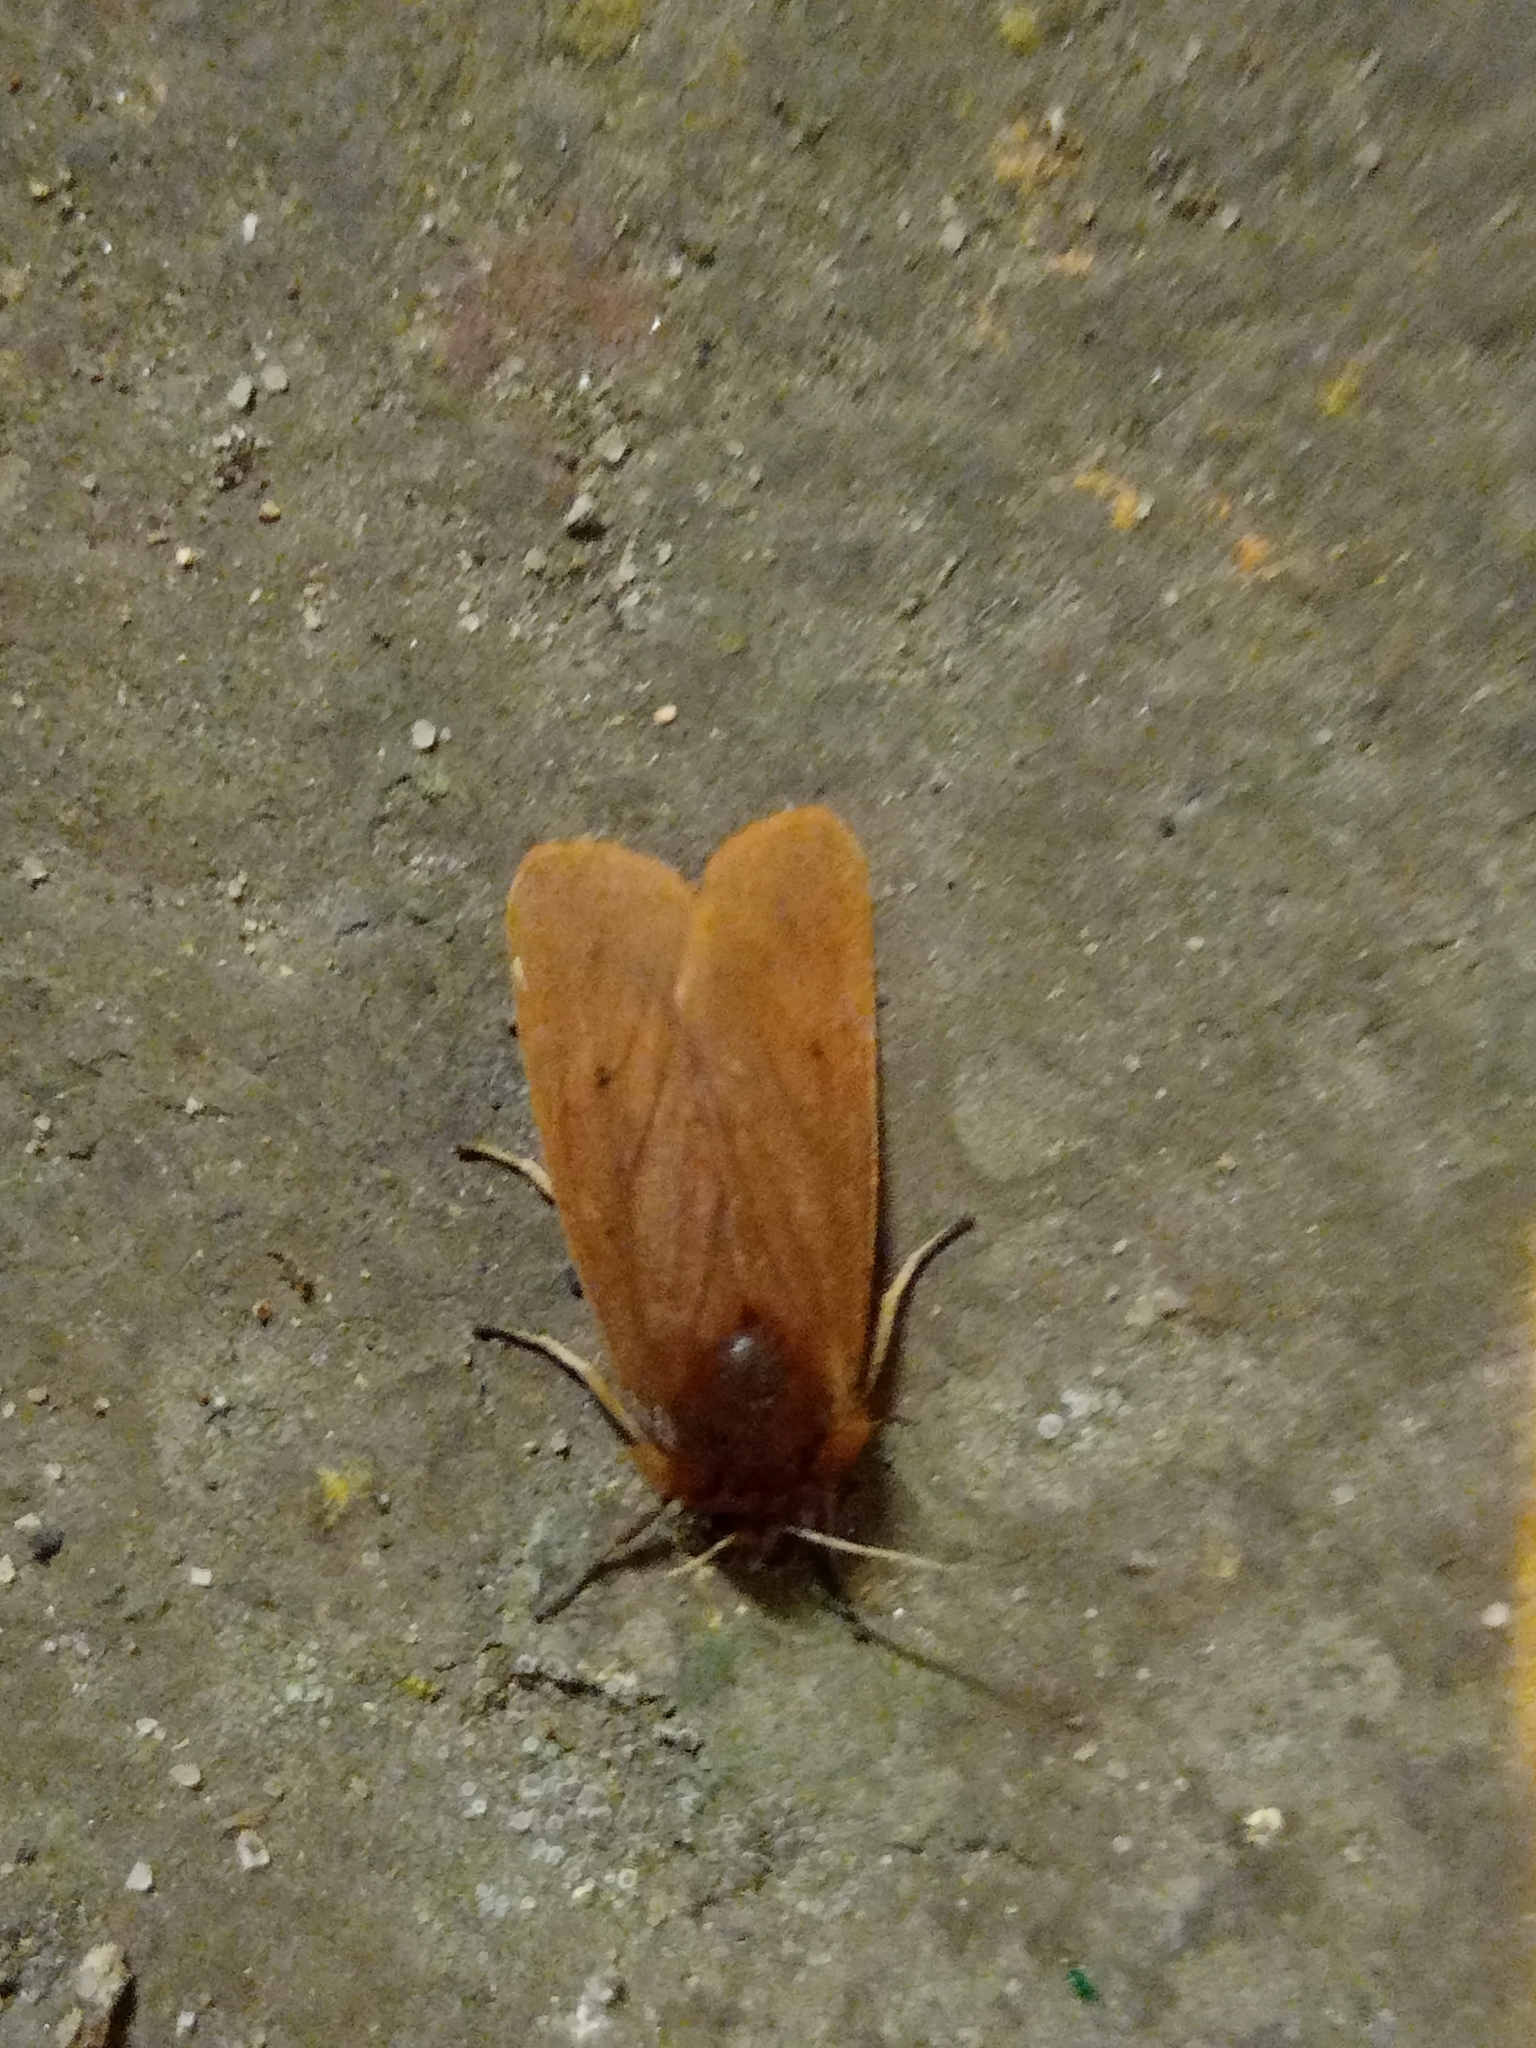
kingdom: Animalia
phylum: Arthropoda
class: Insecta
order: Lepidoptera
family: Erebidae
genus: Phragmatobia
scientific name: Phragmatobia fuliginosa
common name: Ruby tiger
